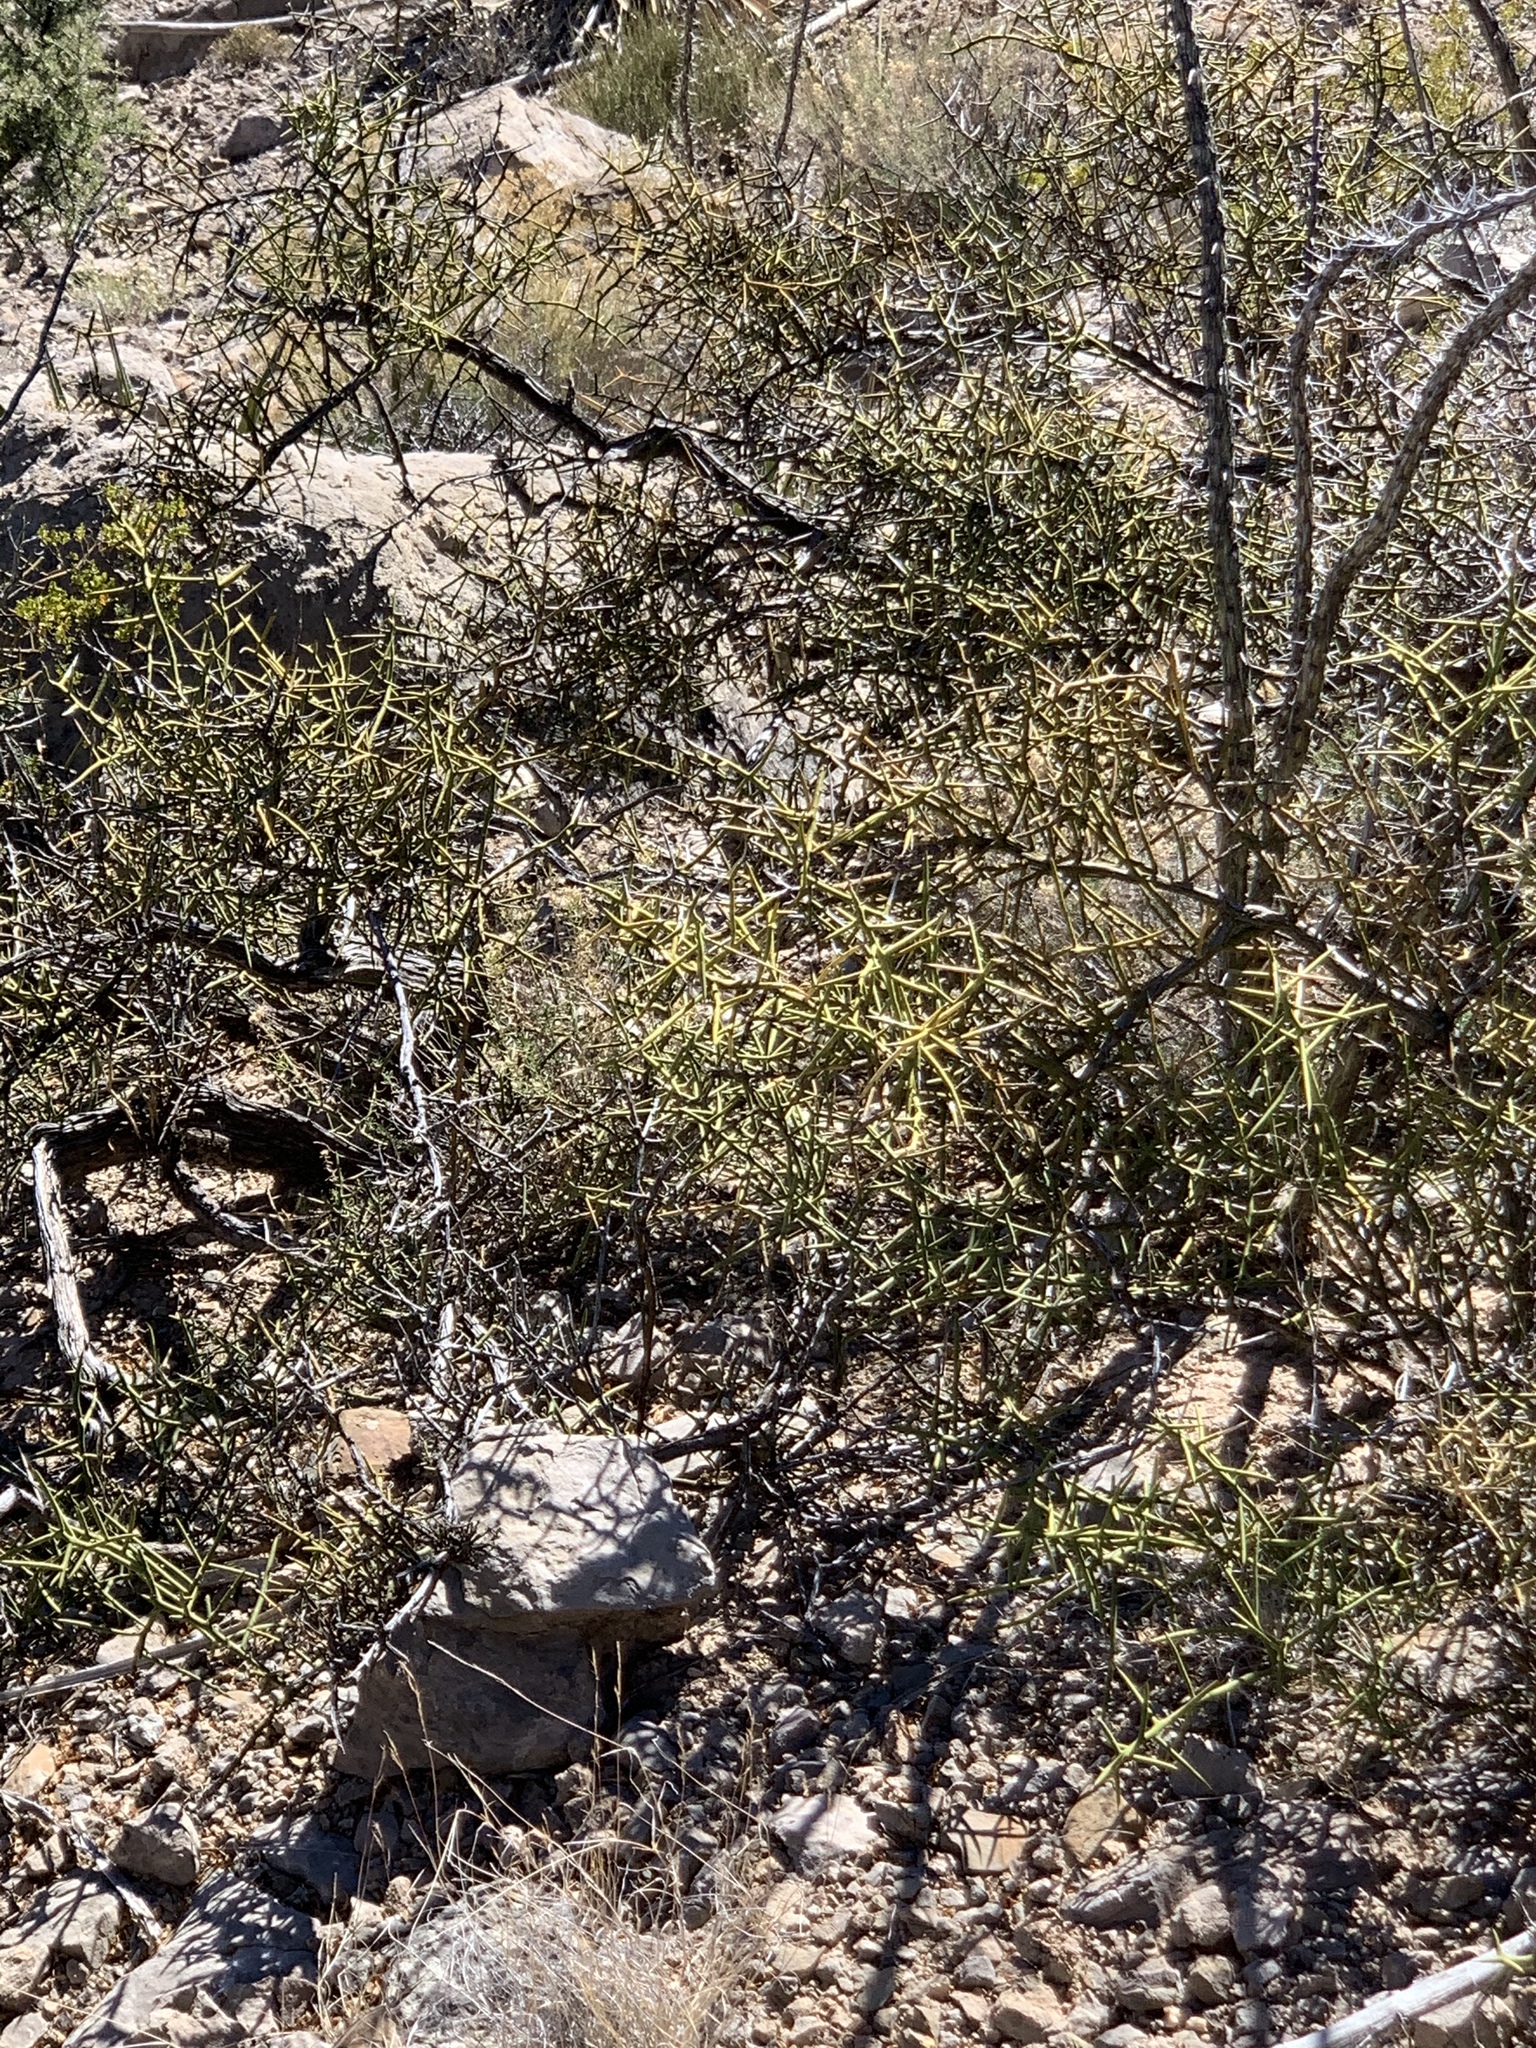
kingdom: Plantae
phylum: Tracheophyta
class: Magnoliopsida
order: Brassicales
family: Koeberliniaceae
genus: Koeberlinia
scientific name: Koeberlinia spinosa
